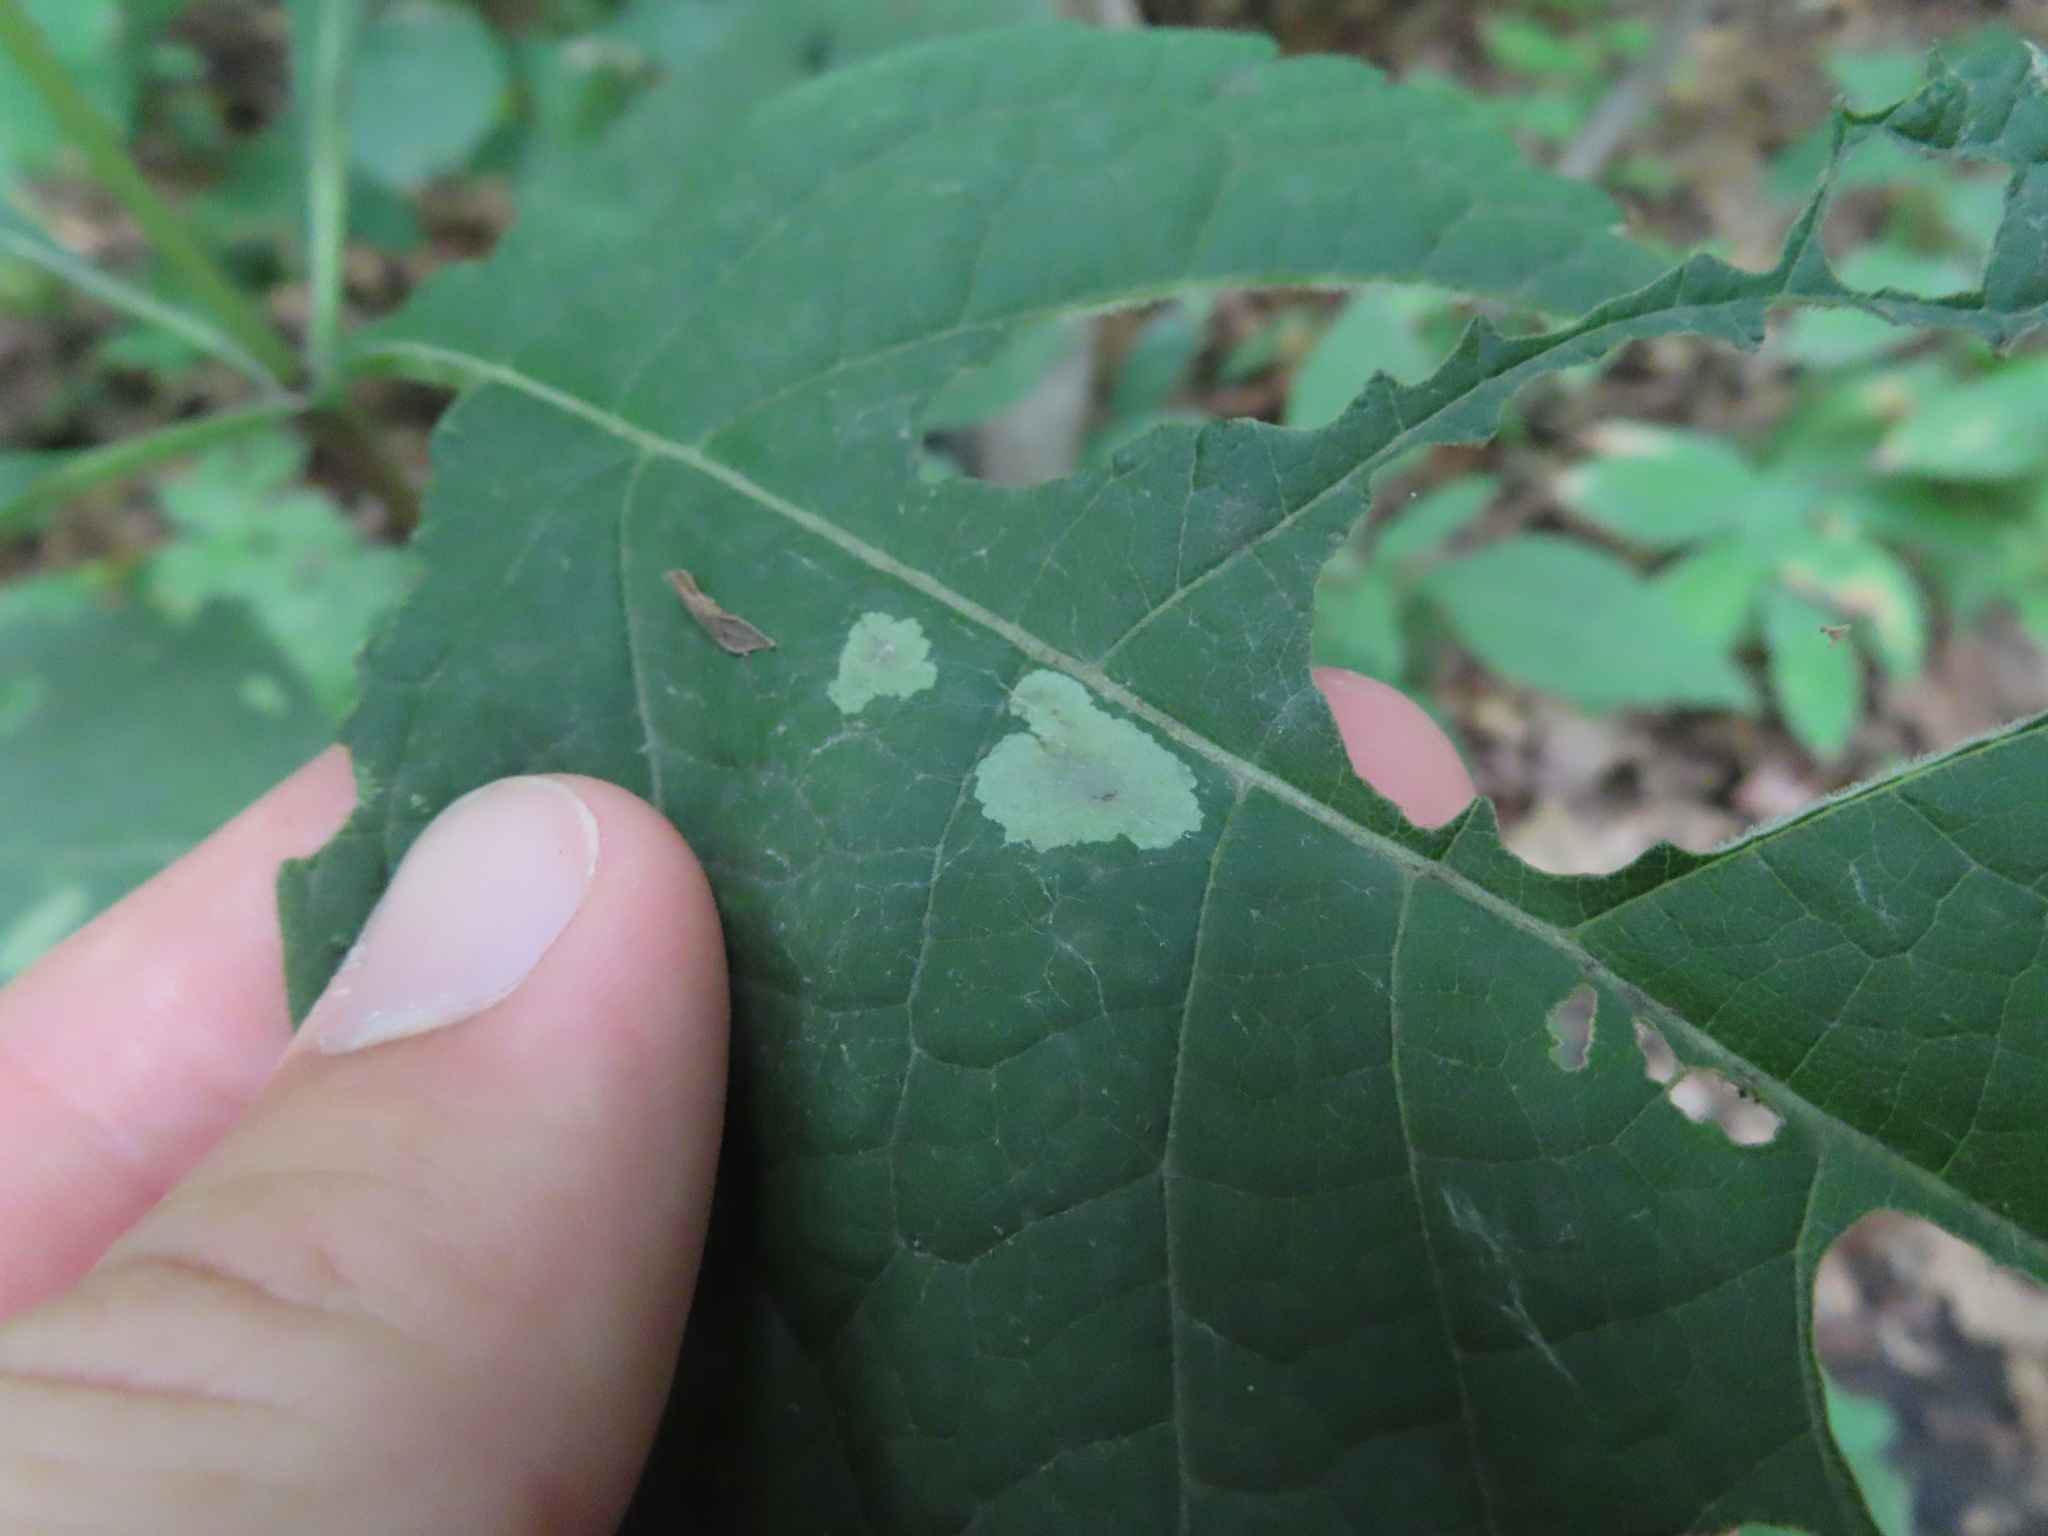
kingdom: Animalia
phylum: Arthropoda
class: Insecta
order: Diptera
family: Agromyzidae
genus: Calycomyza
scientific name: Calycomyza flavinotum
